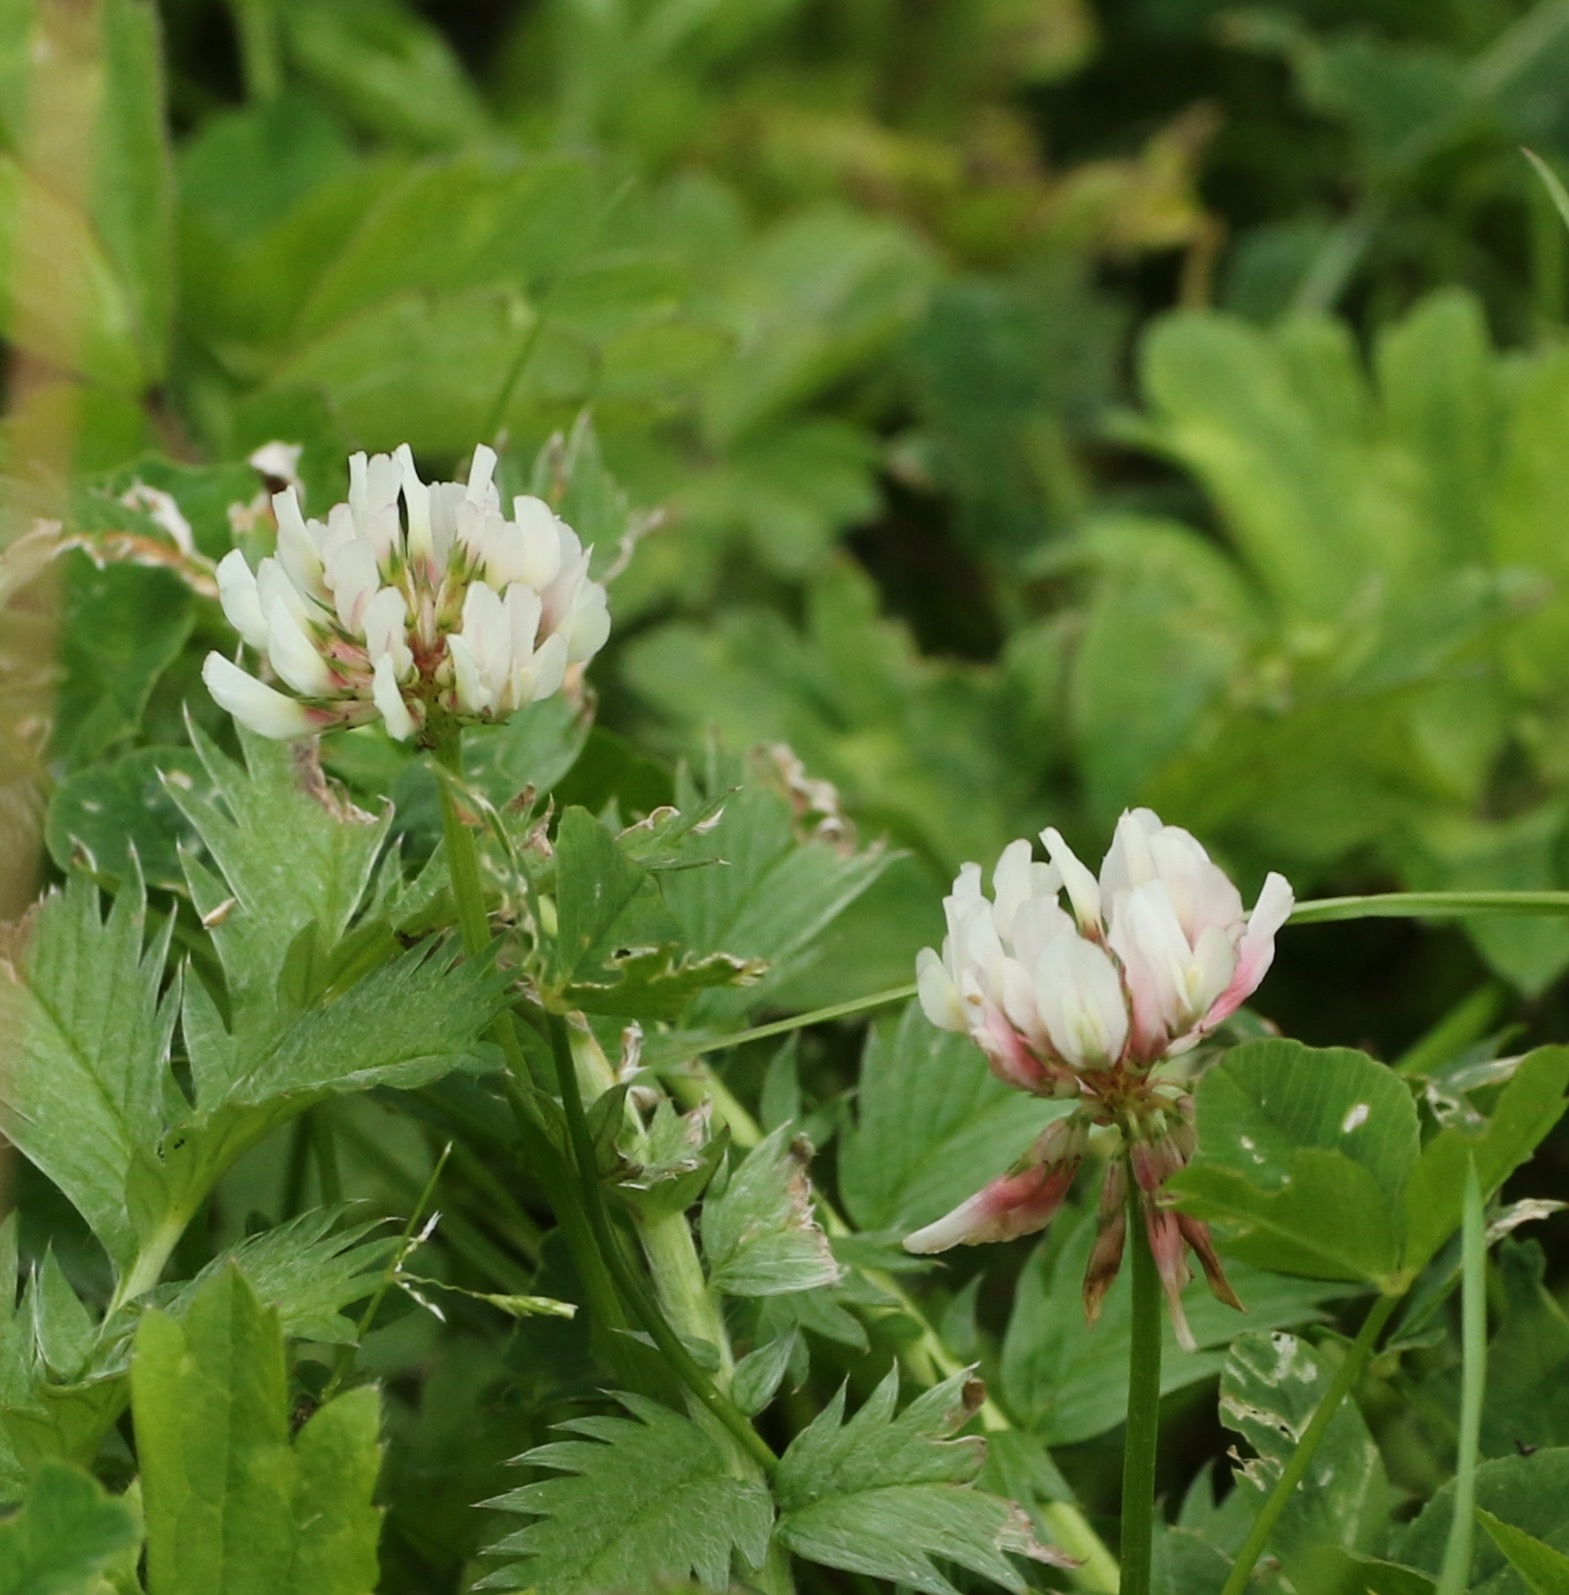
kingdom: Plantae
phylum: Tracheophyta
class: Magnoliopsida
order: Fabales
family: Fabaceae
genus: Trifolium
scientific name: Trifolium repens
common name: White clover
